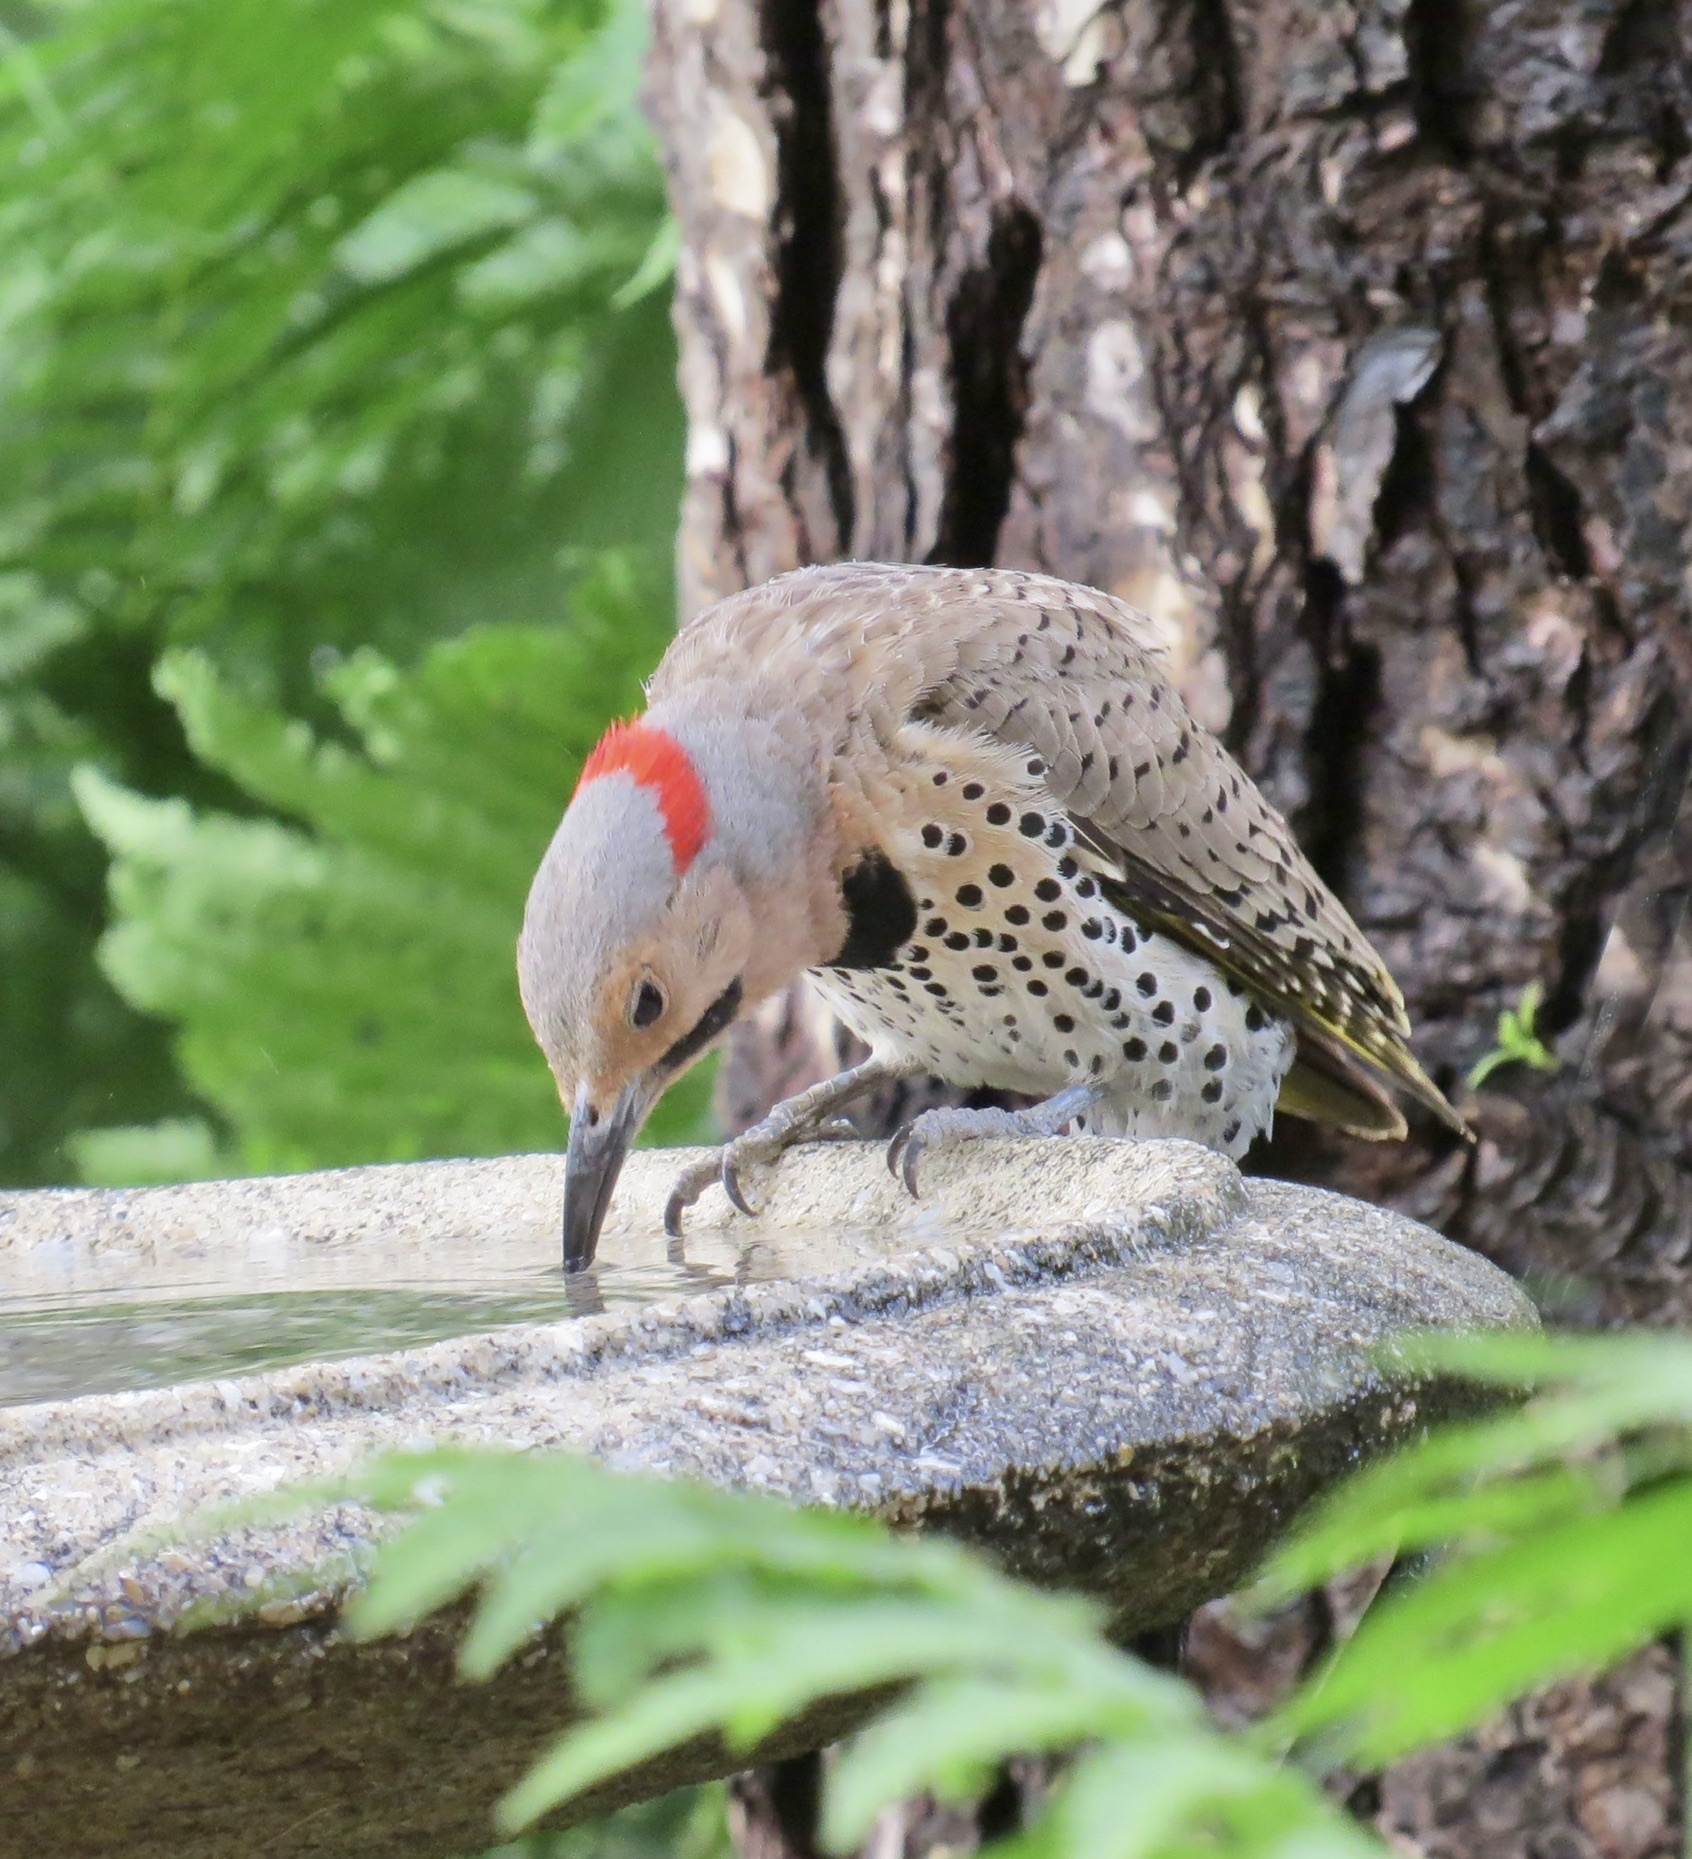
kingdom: Animalia
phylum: Chordata
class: Aves
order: Piciformes
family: Picidae
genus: Colaptes
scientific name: Colaptes auratus
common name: Northern flicker
